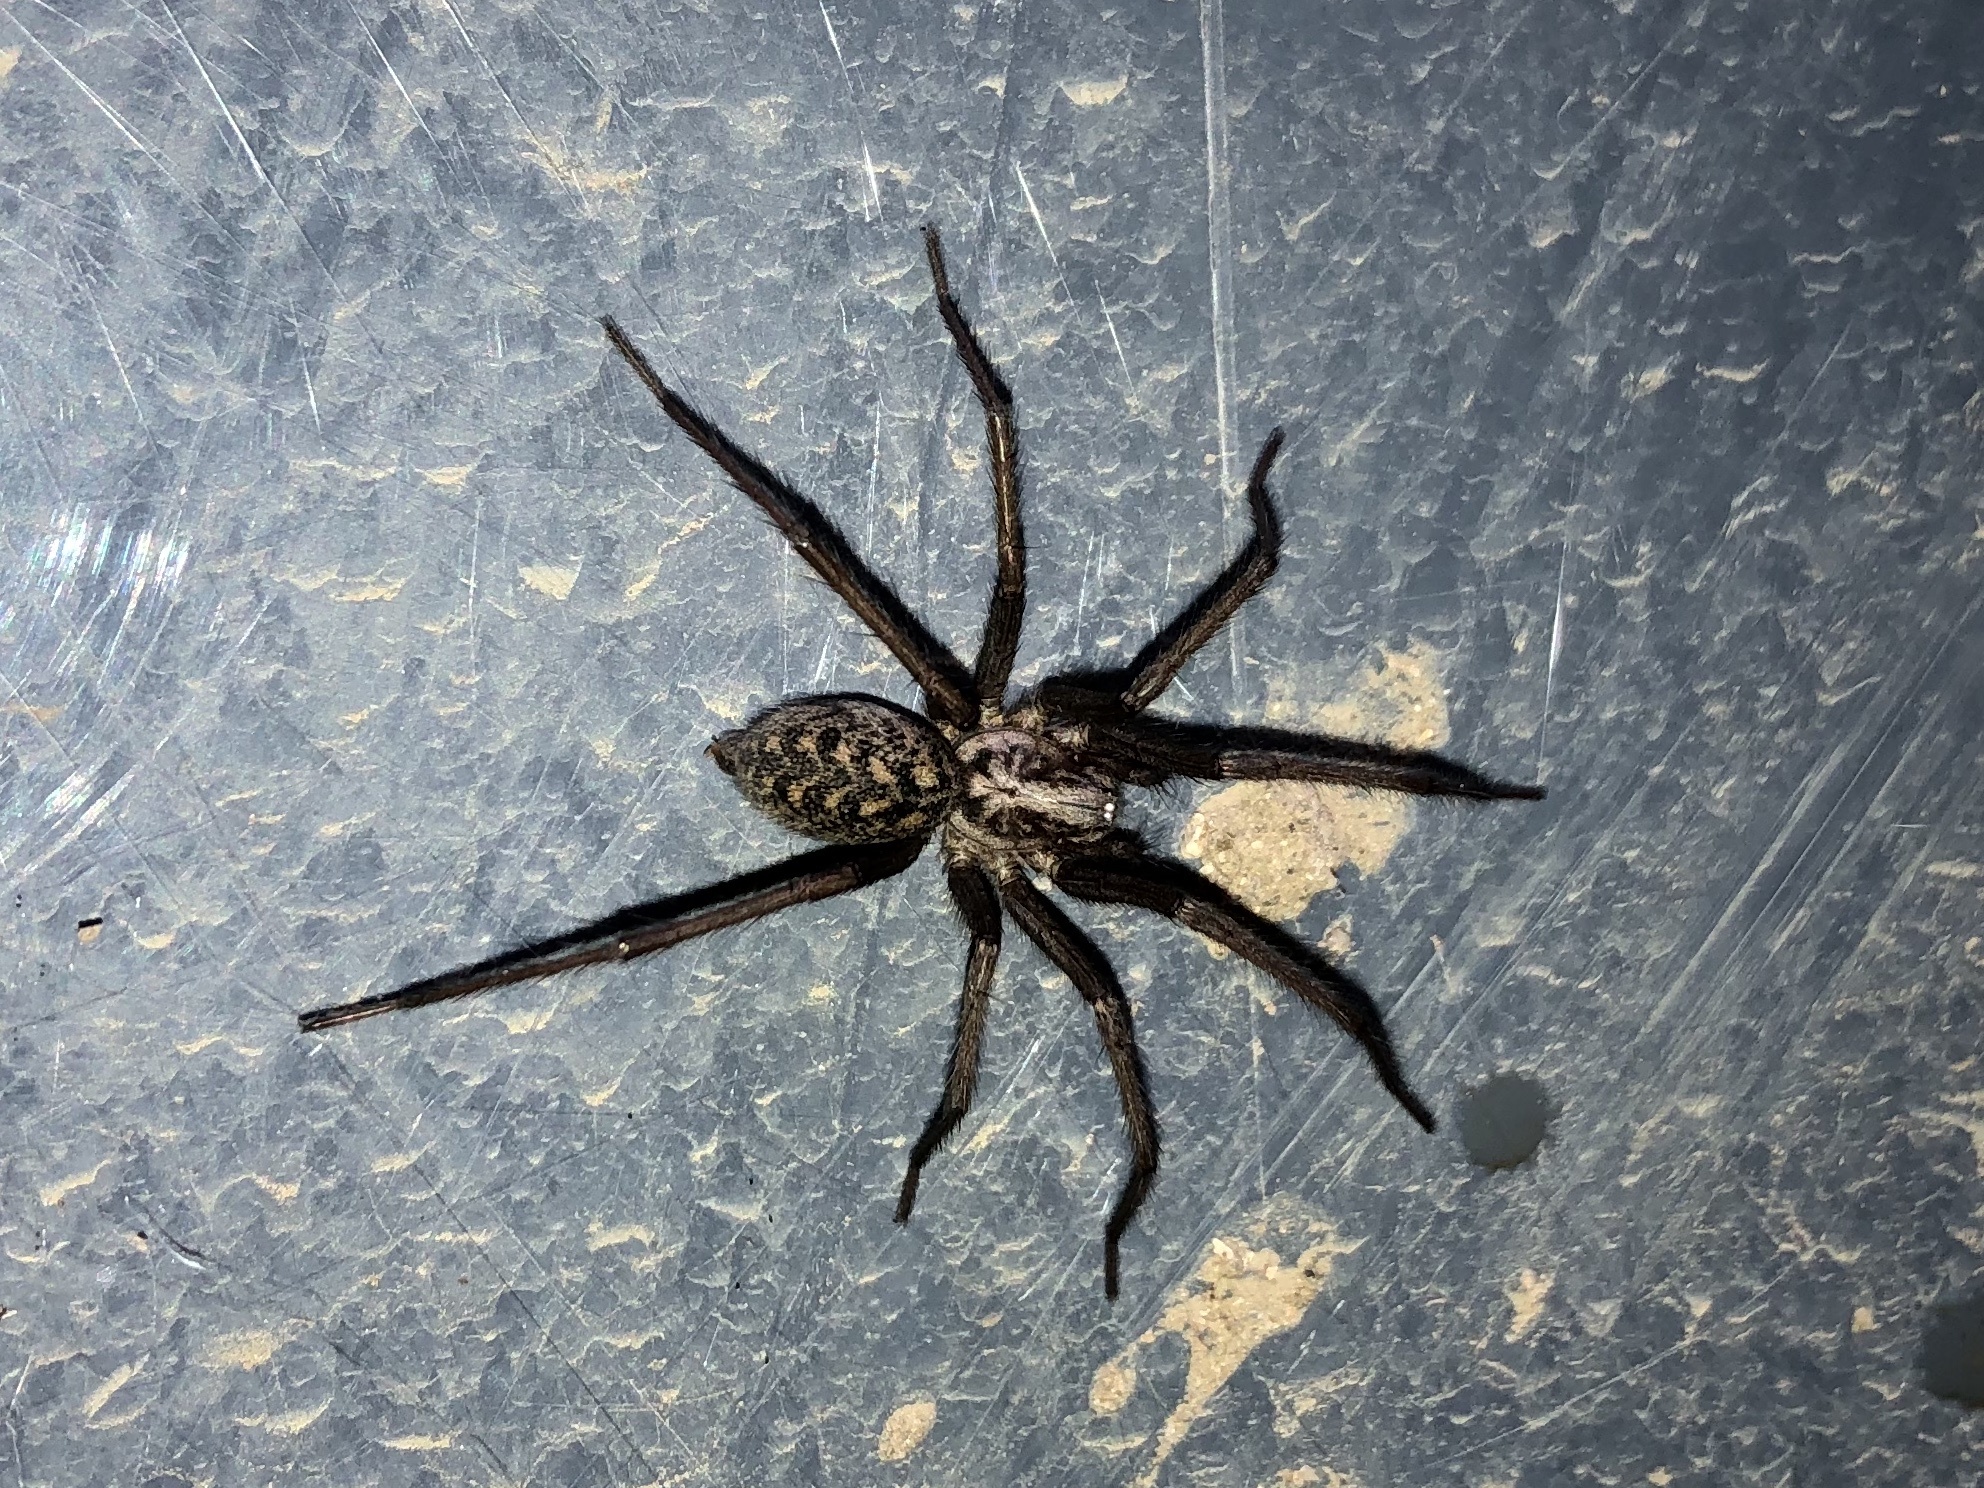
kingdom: Animalia
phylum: Arthropoda
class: Arachnida
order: Araneae
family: Agelenidae
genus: Eratigena
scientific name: Eratigena atrica
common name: Giant house spider
